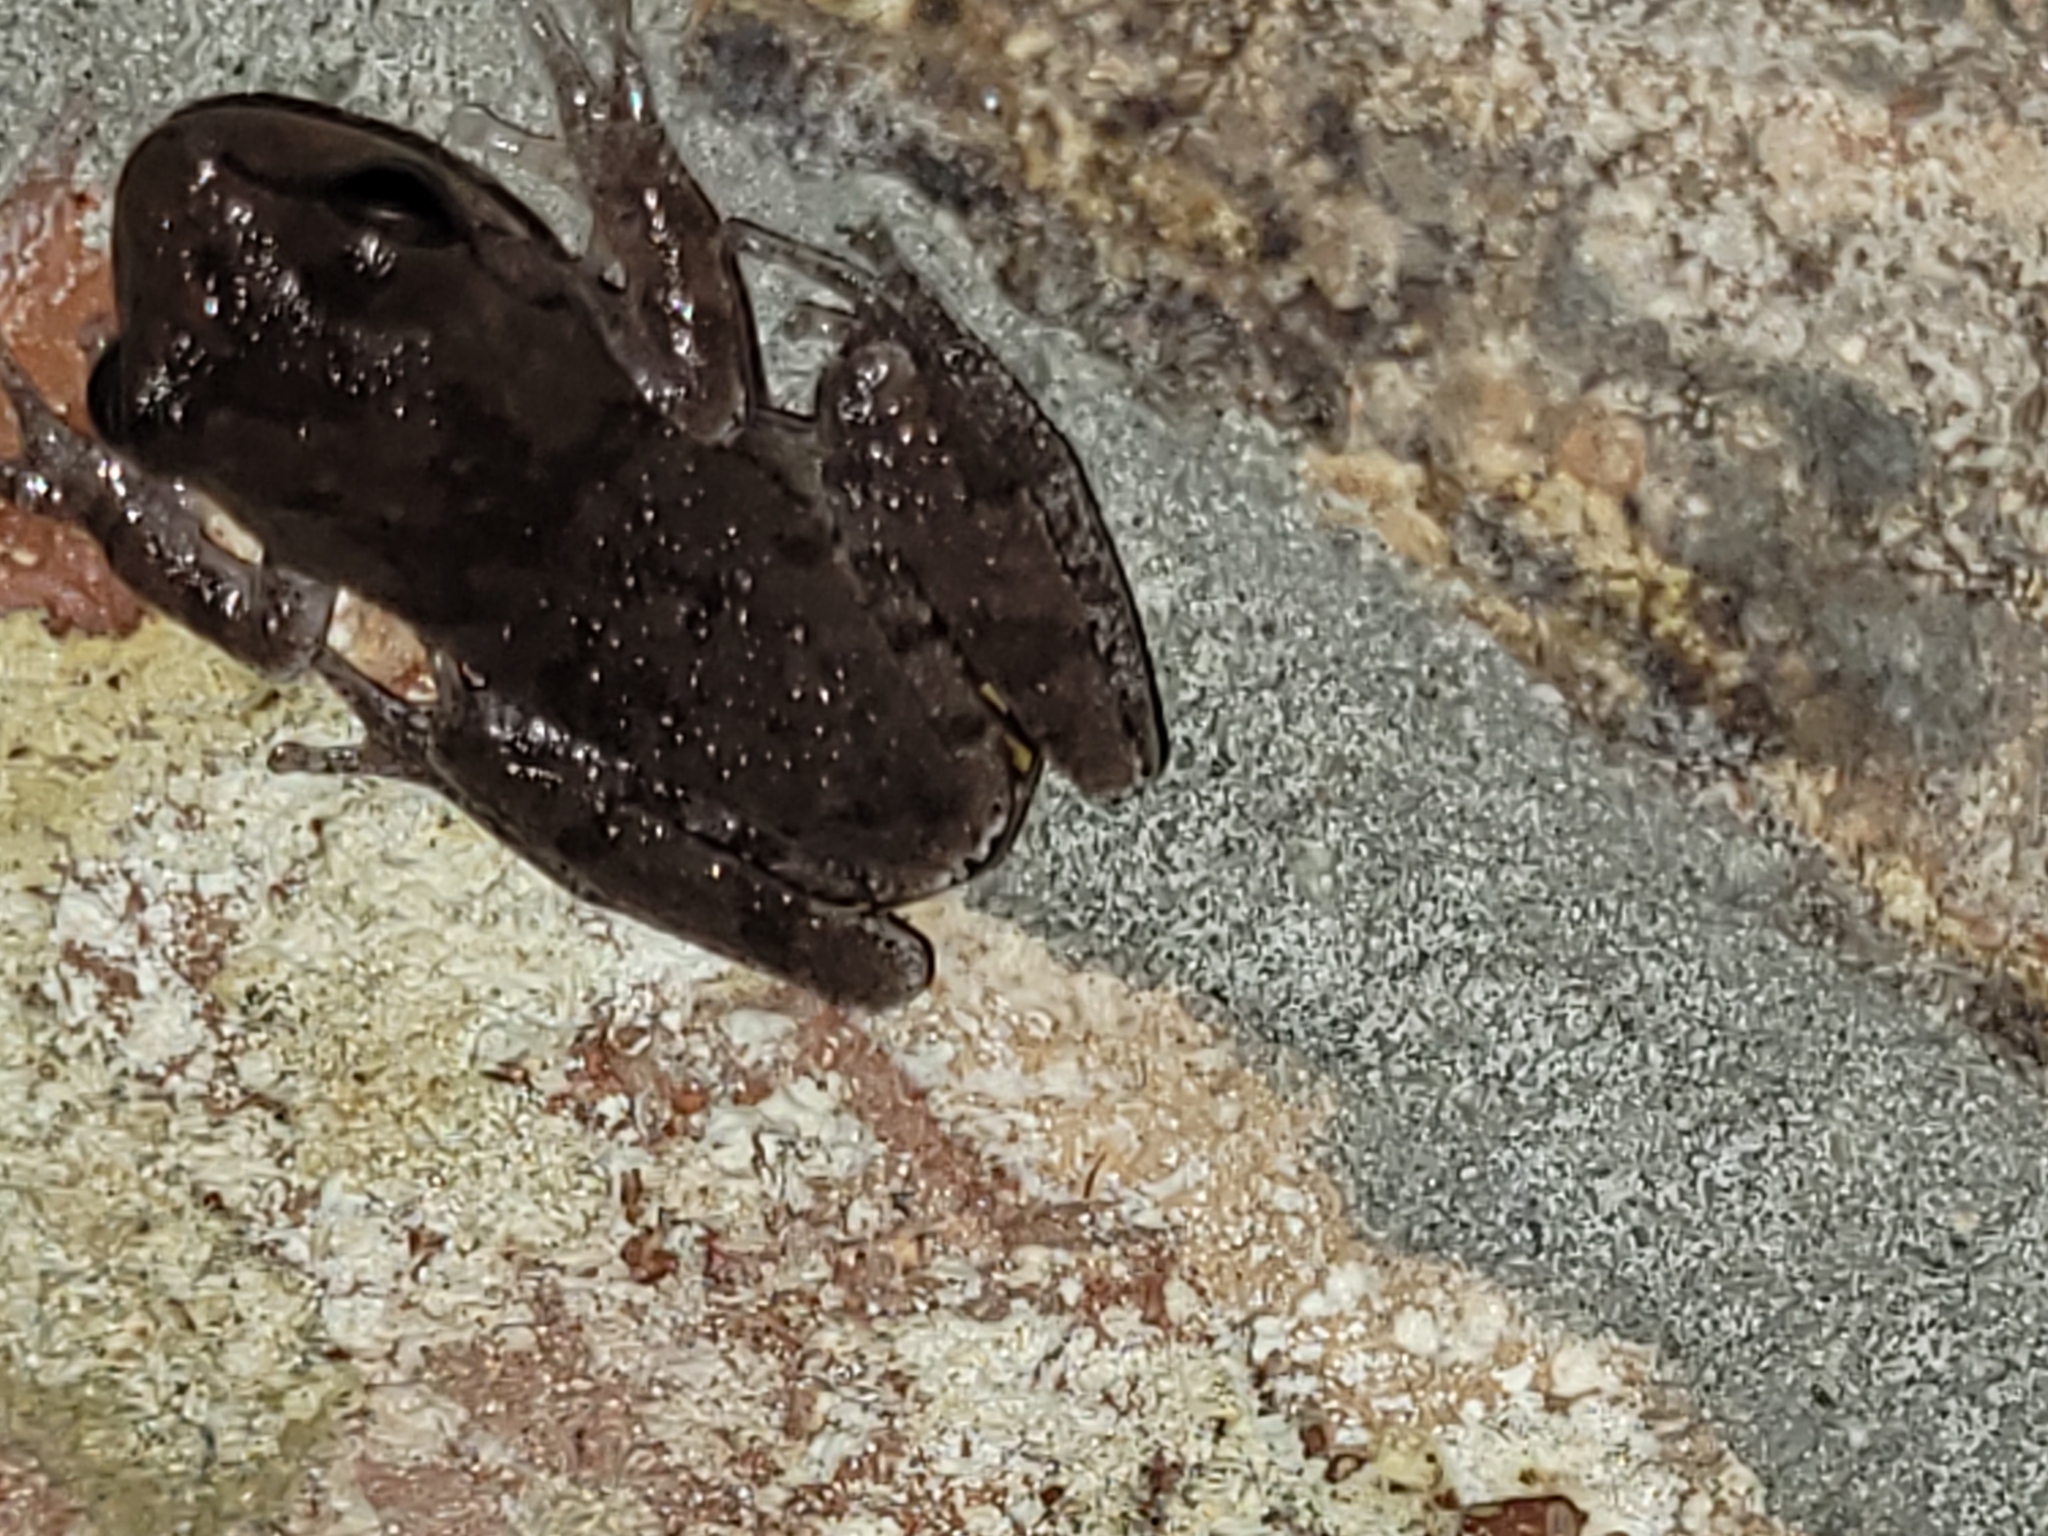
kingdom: Animalia
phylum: Chordata
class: Amphibia
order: Anura
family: Hylidae
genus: Hyla
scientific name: Hyla femoralis
